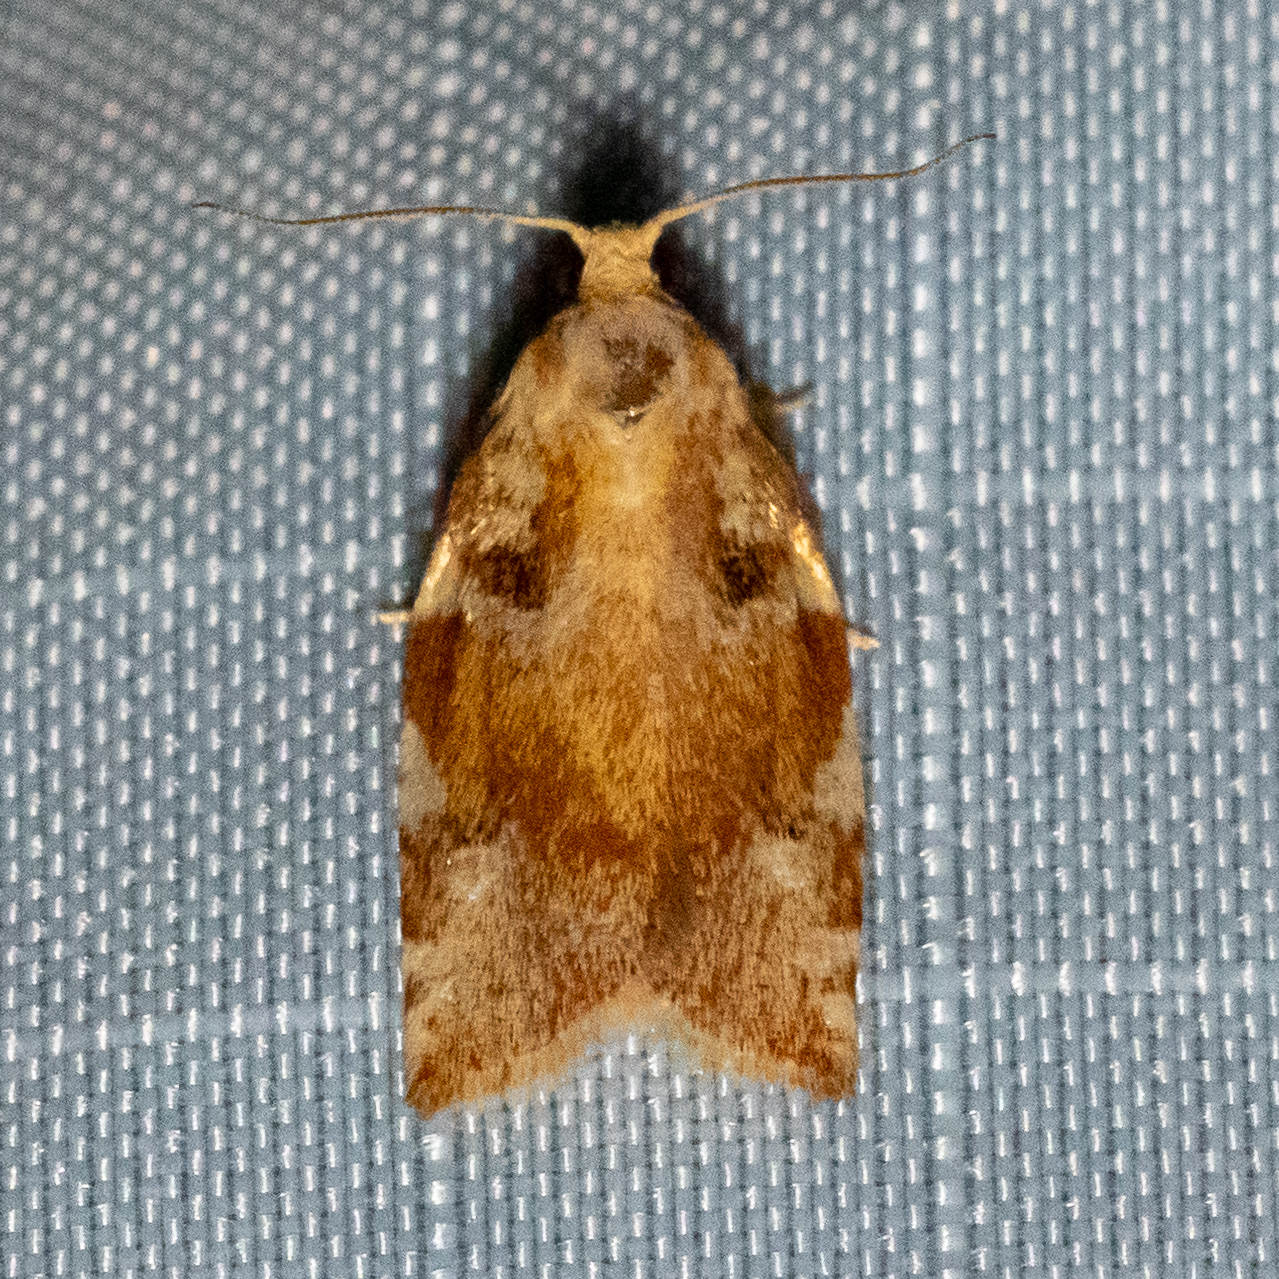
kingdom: Animalia
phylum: Arthropoda
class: Insecta
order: Lepidoptera
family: Tortricidae
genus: Archips
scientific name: Archips semiferanus
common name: Oak leafroller
